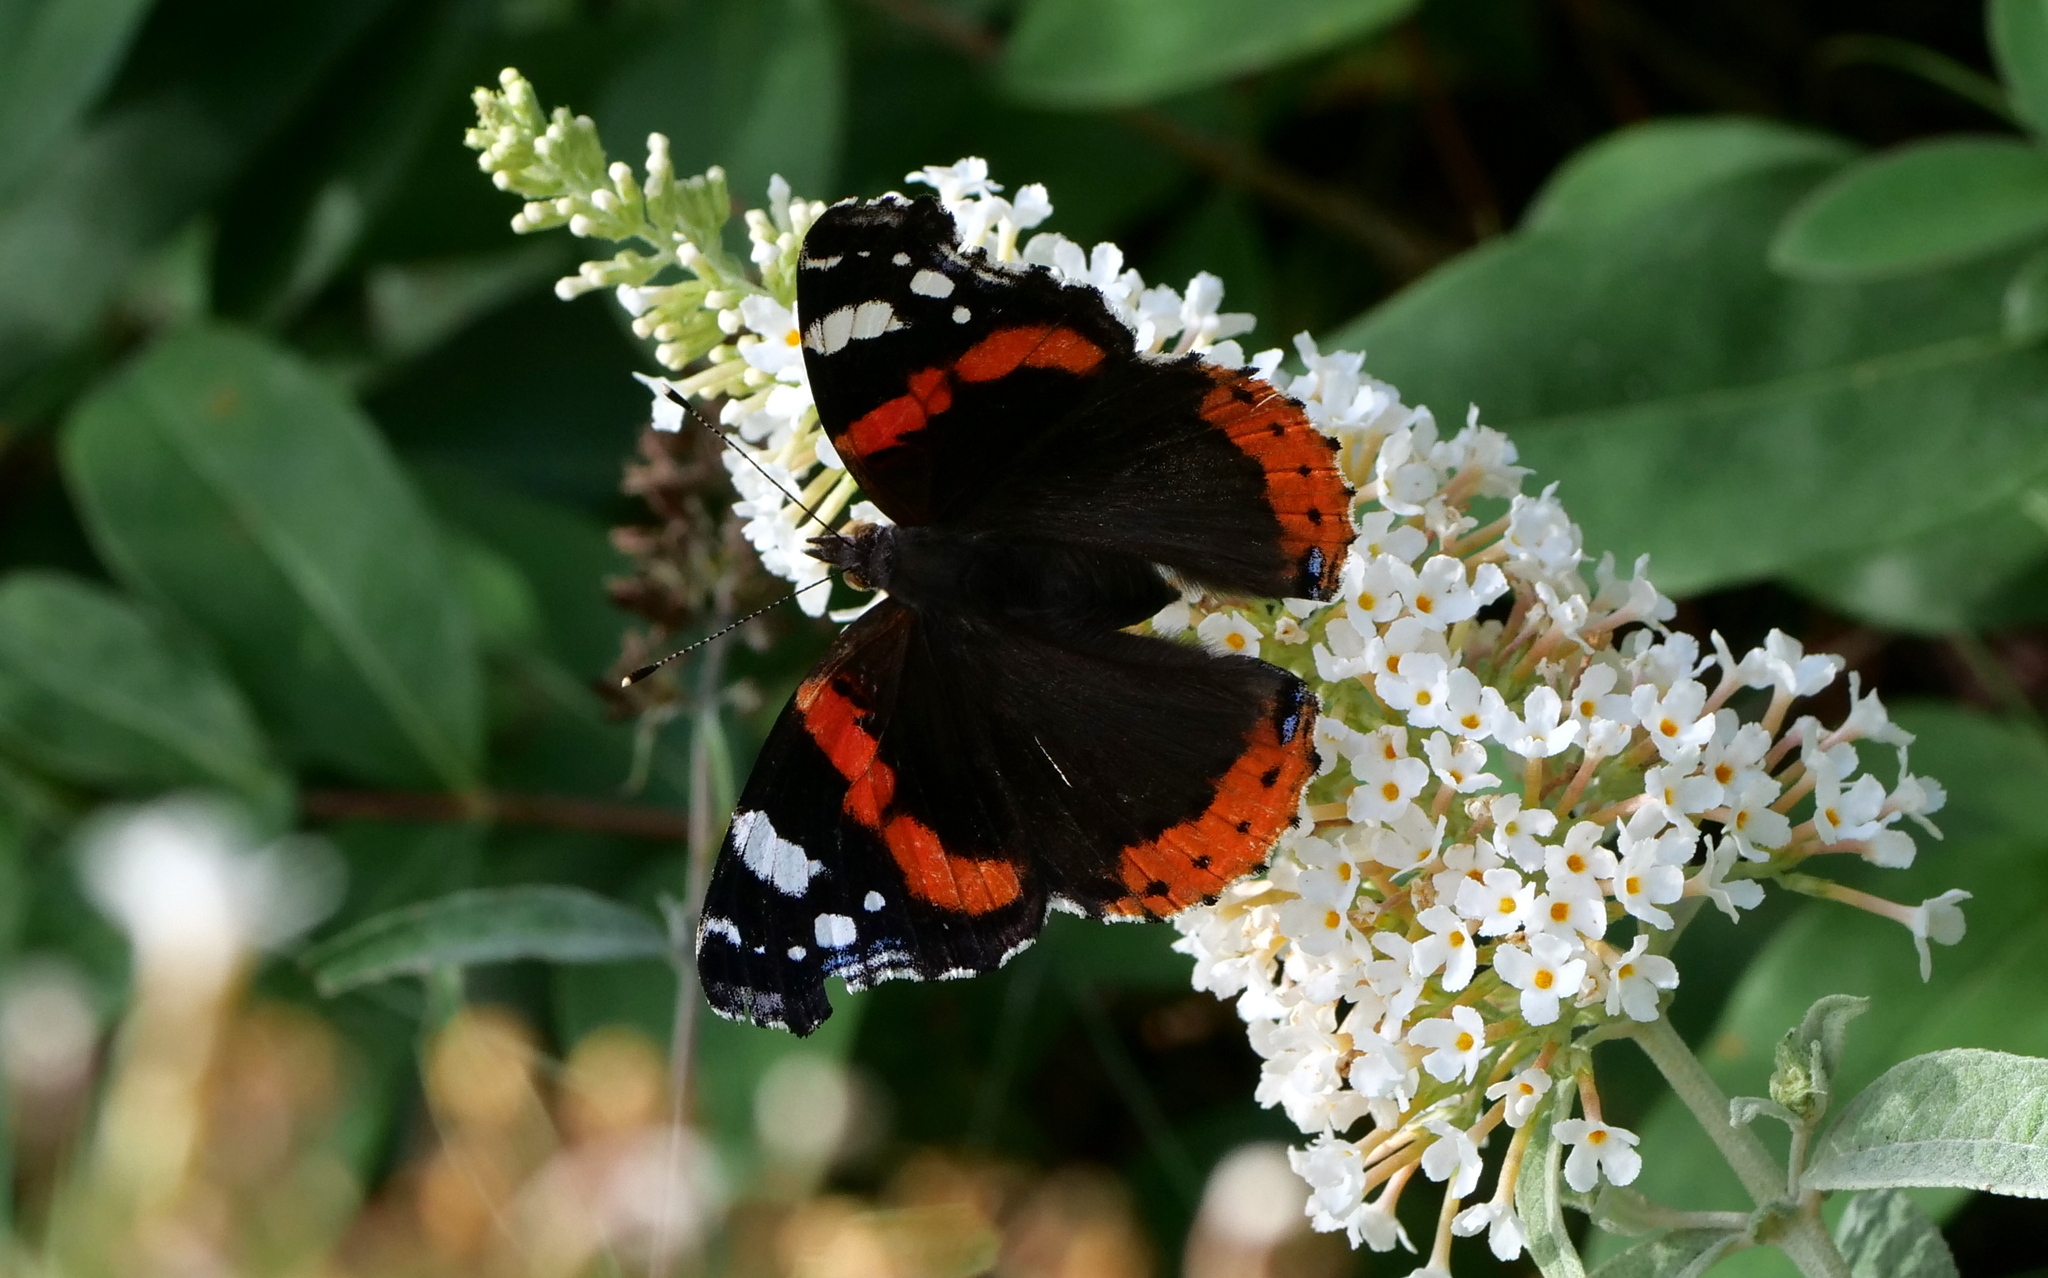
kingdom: Animalia
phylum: Arthropoda
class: Insecta
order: Lepidoptera
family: Nymphalidae
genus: Vanessa
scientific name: Vanessa atalanta
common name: Red admiral
